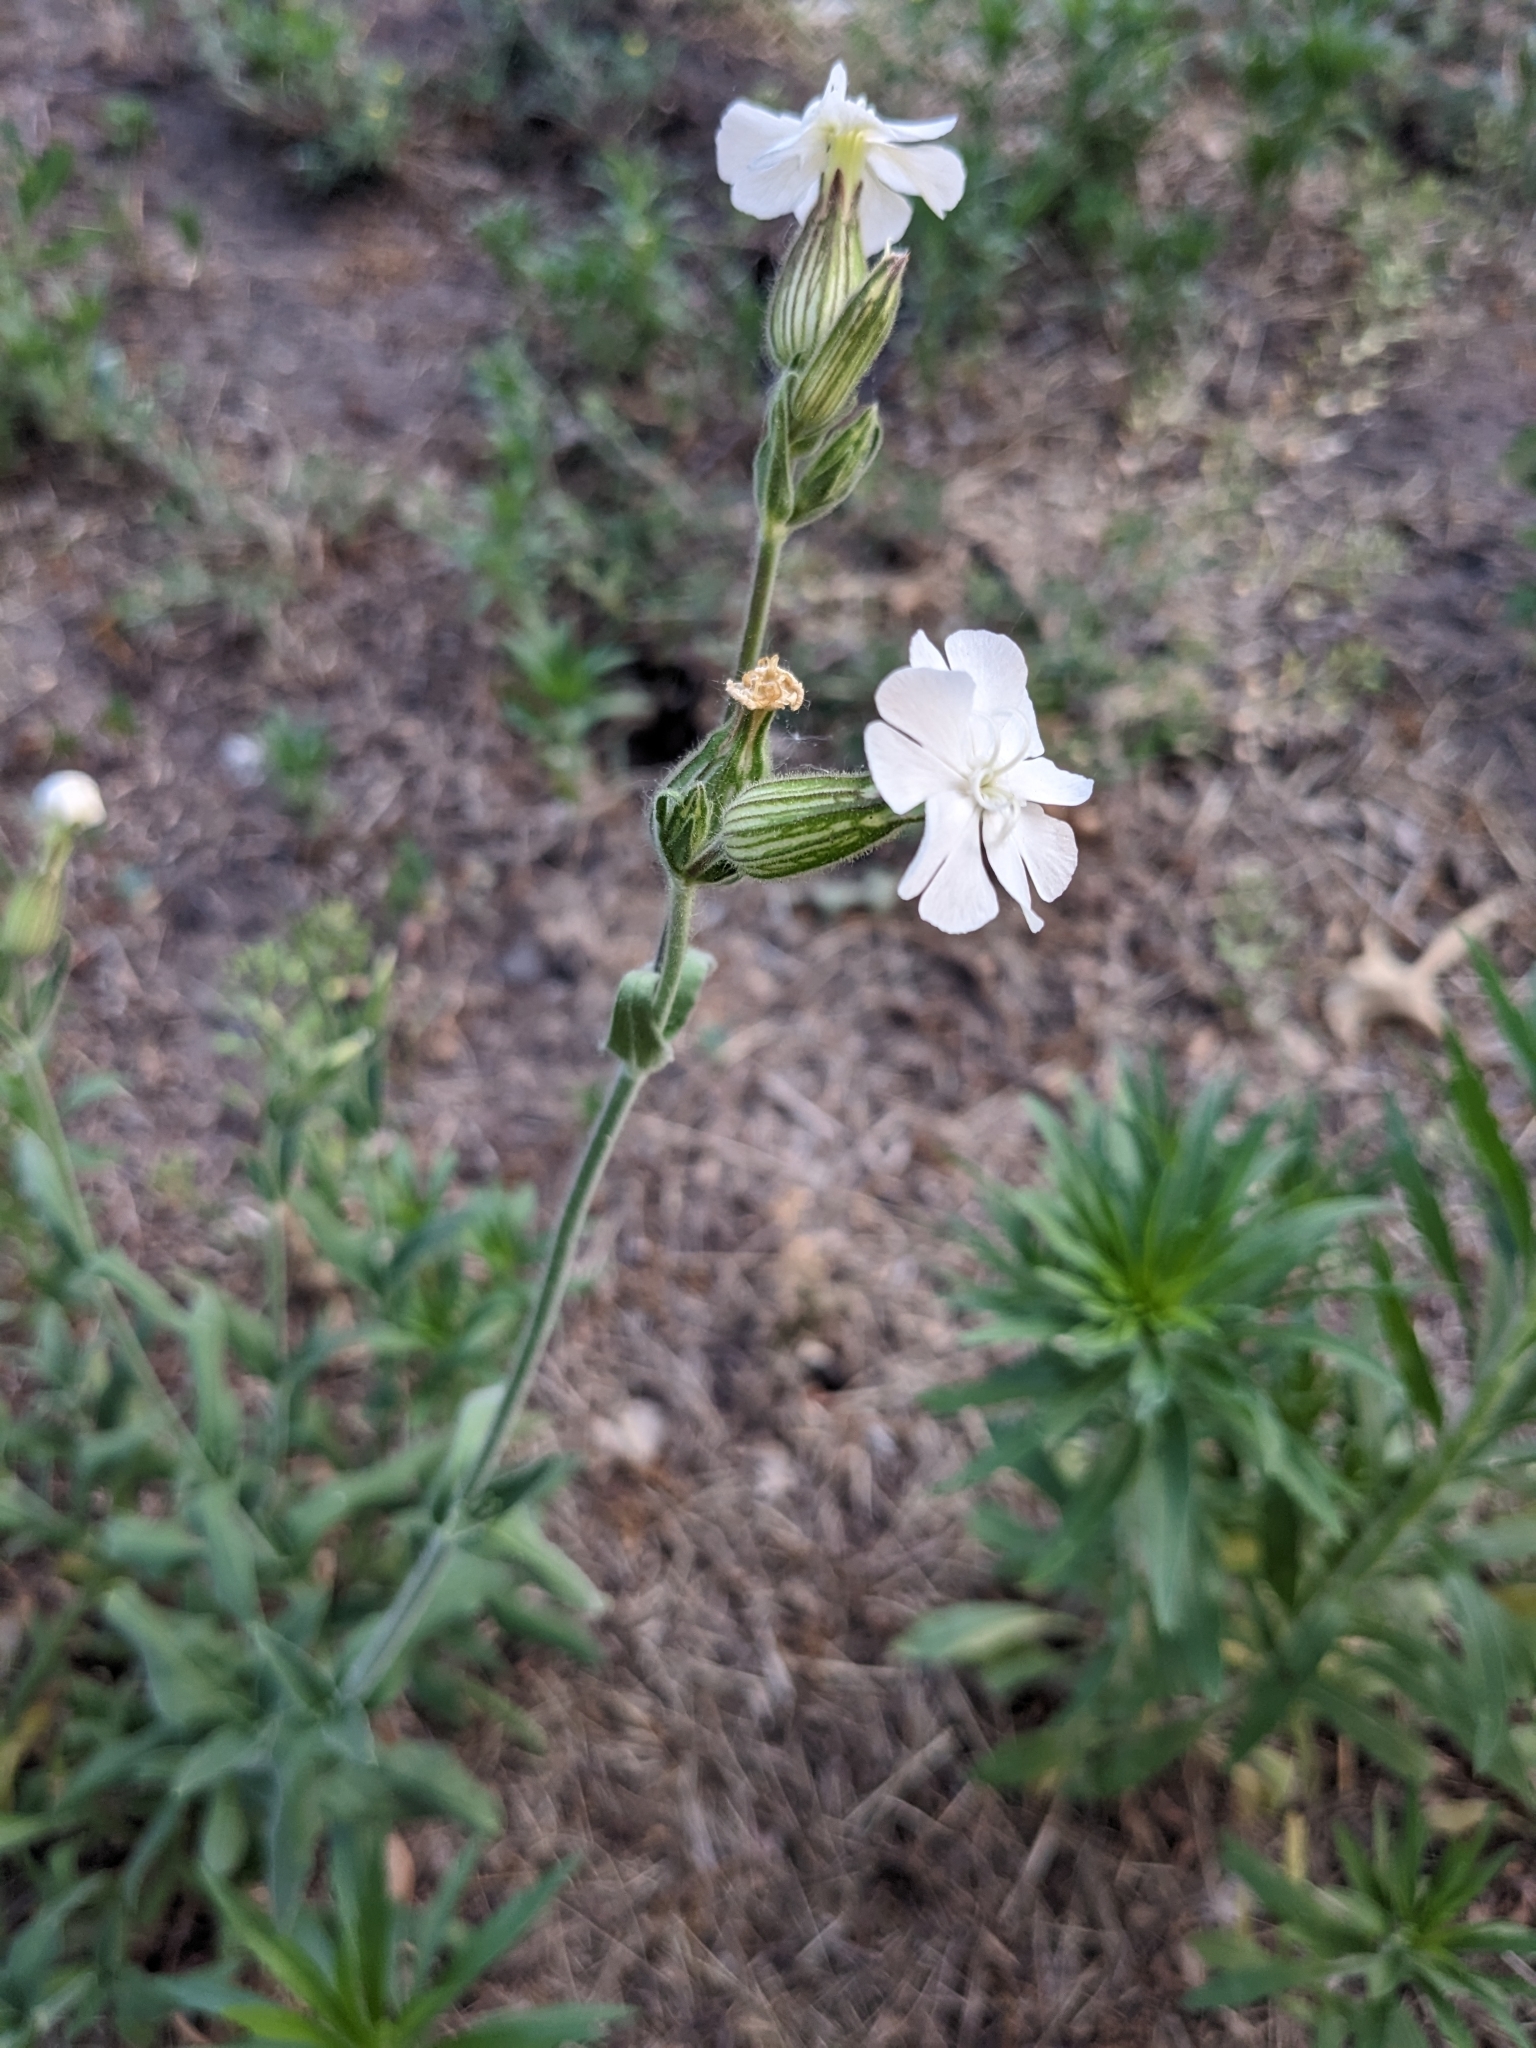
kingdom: Plantae
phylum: Tracheophyta
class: Magnoliopsida
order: Caryophyllales
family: Caryophyllaceae
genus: Silene
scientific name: Silene latifolia
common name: White campion
